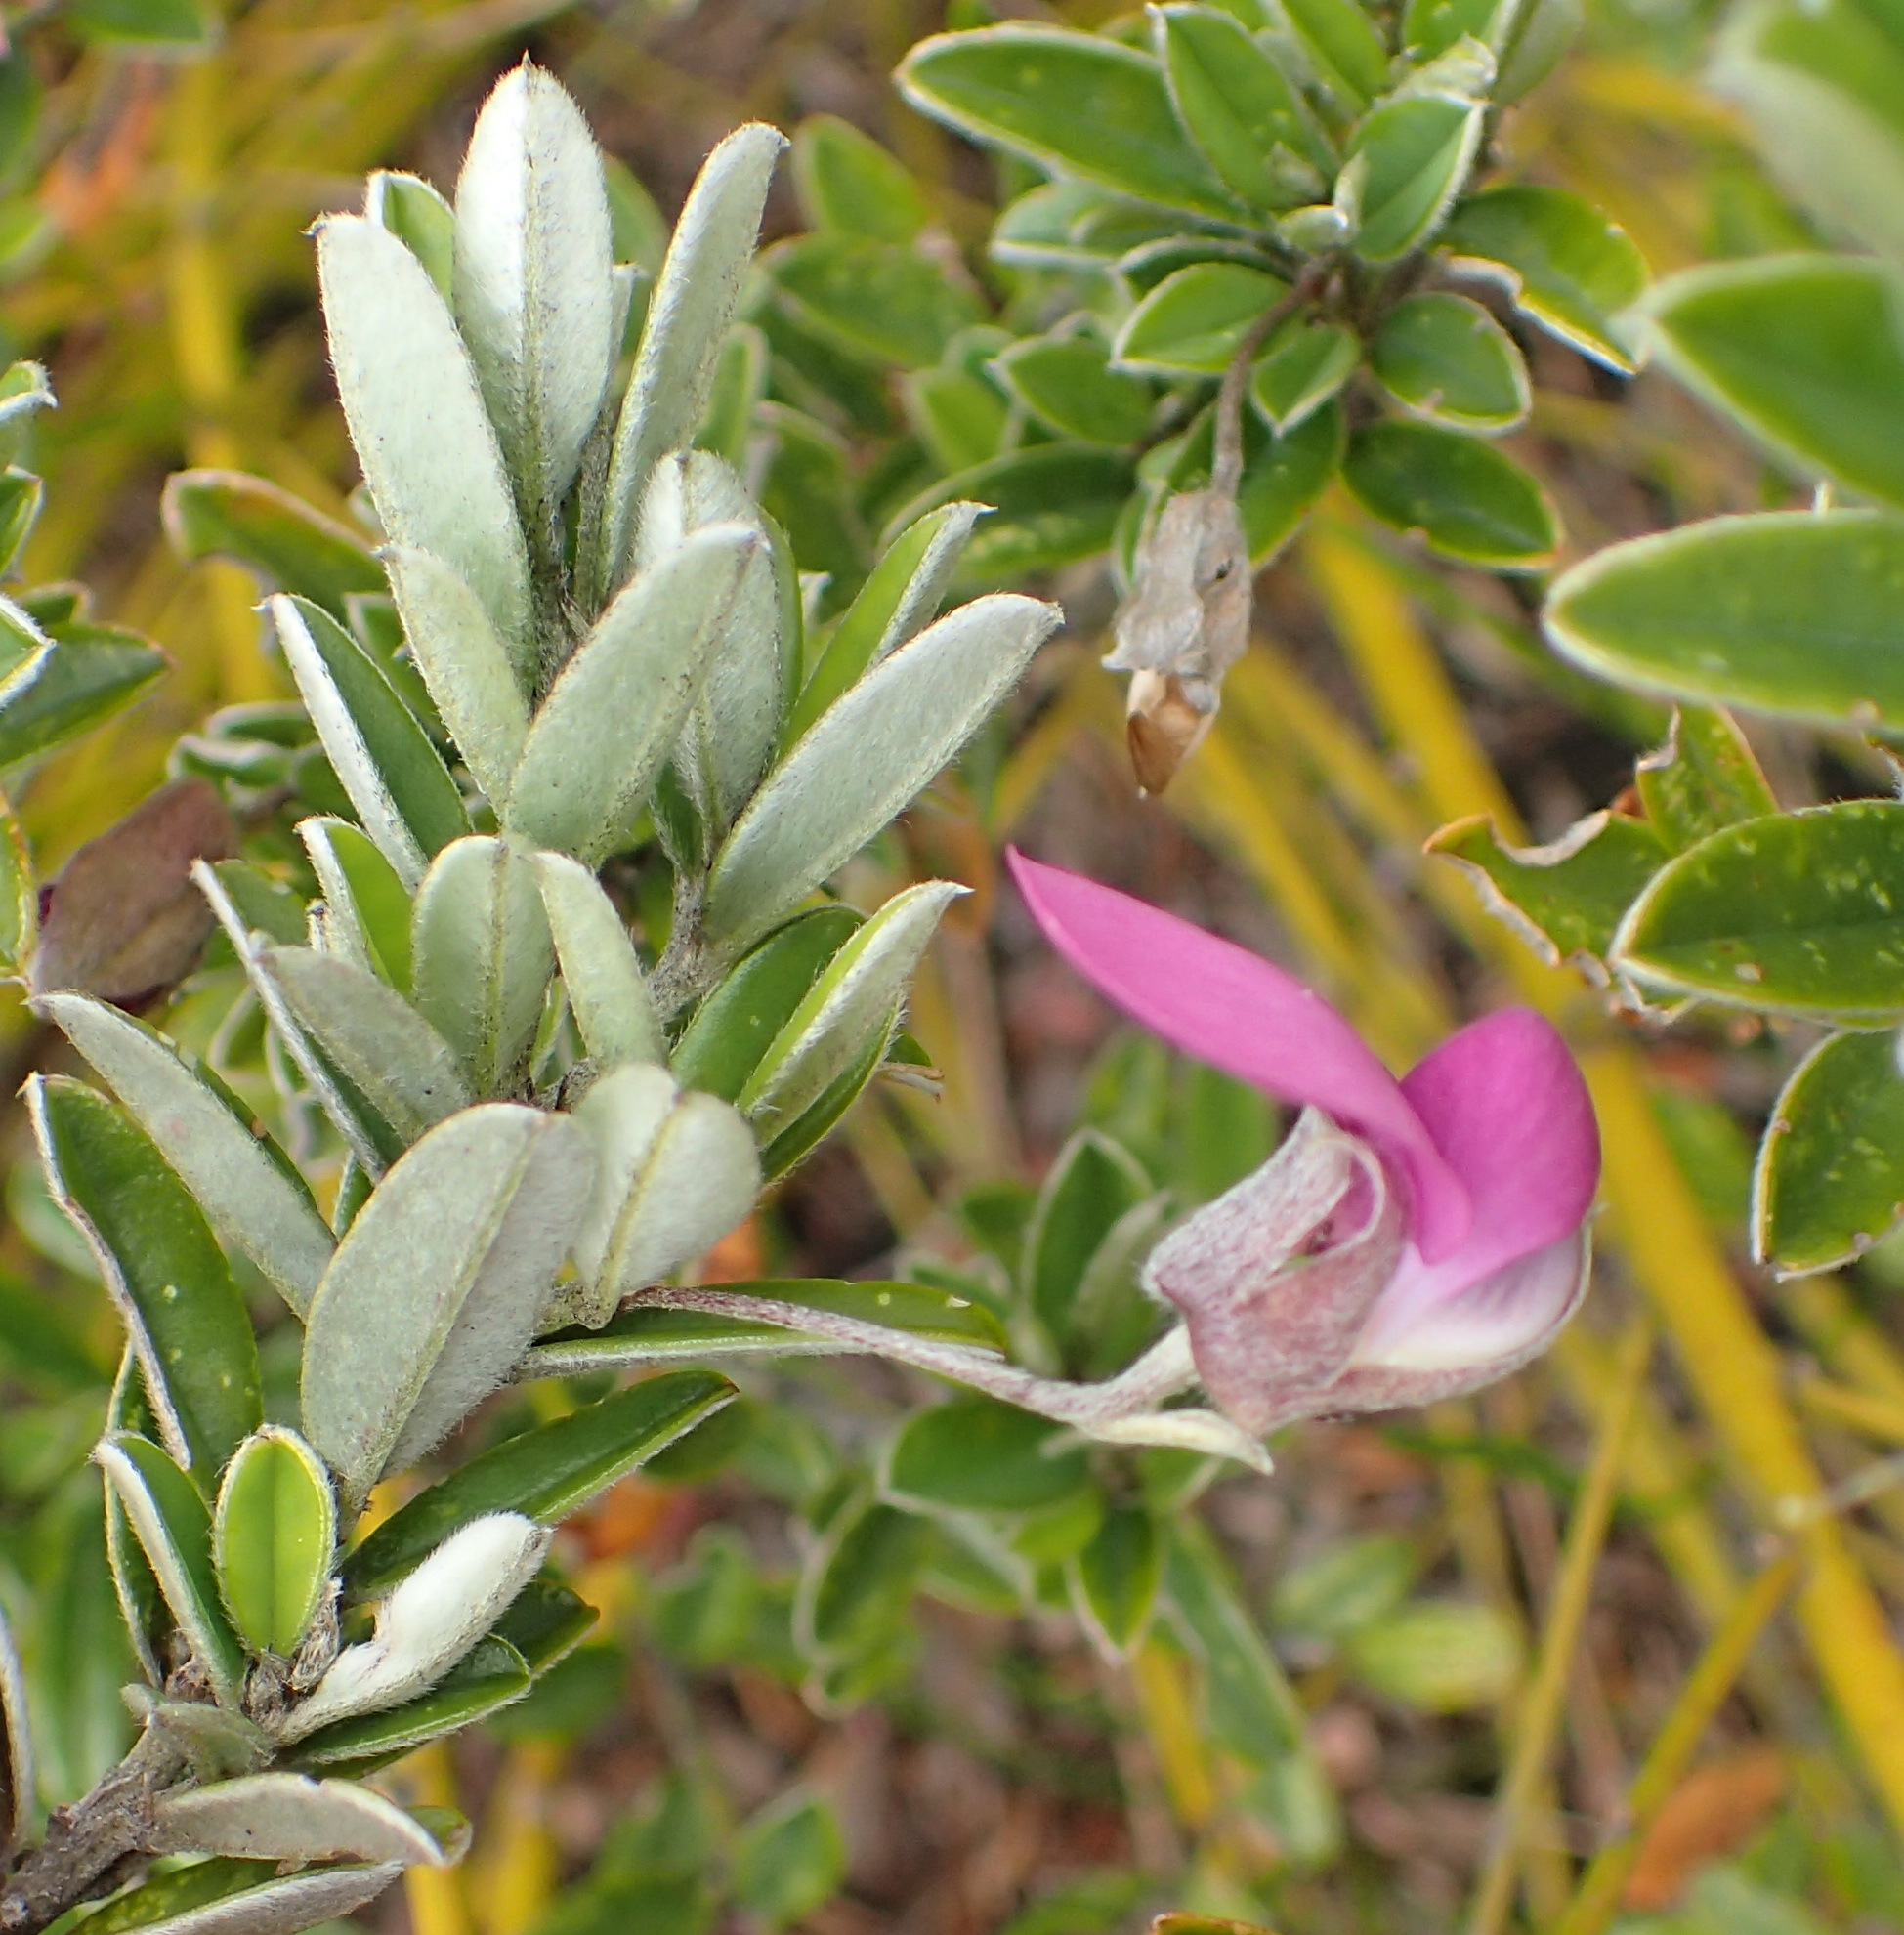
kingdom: Plantae
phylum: Tracheophyta
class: Magnoliopsida
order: Fabales
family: Fabaceae
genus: Podalyria
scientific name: Podalyria buxifolia
